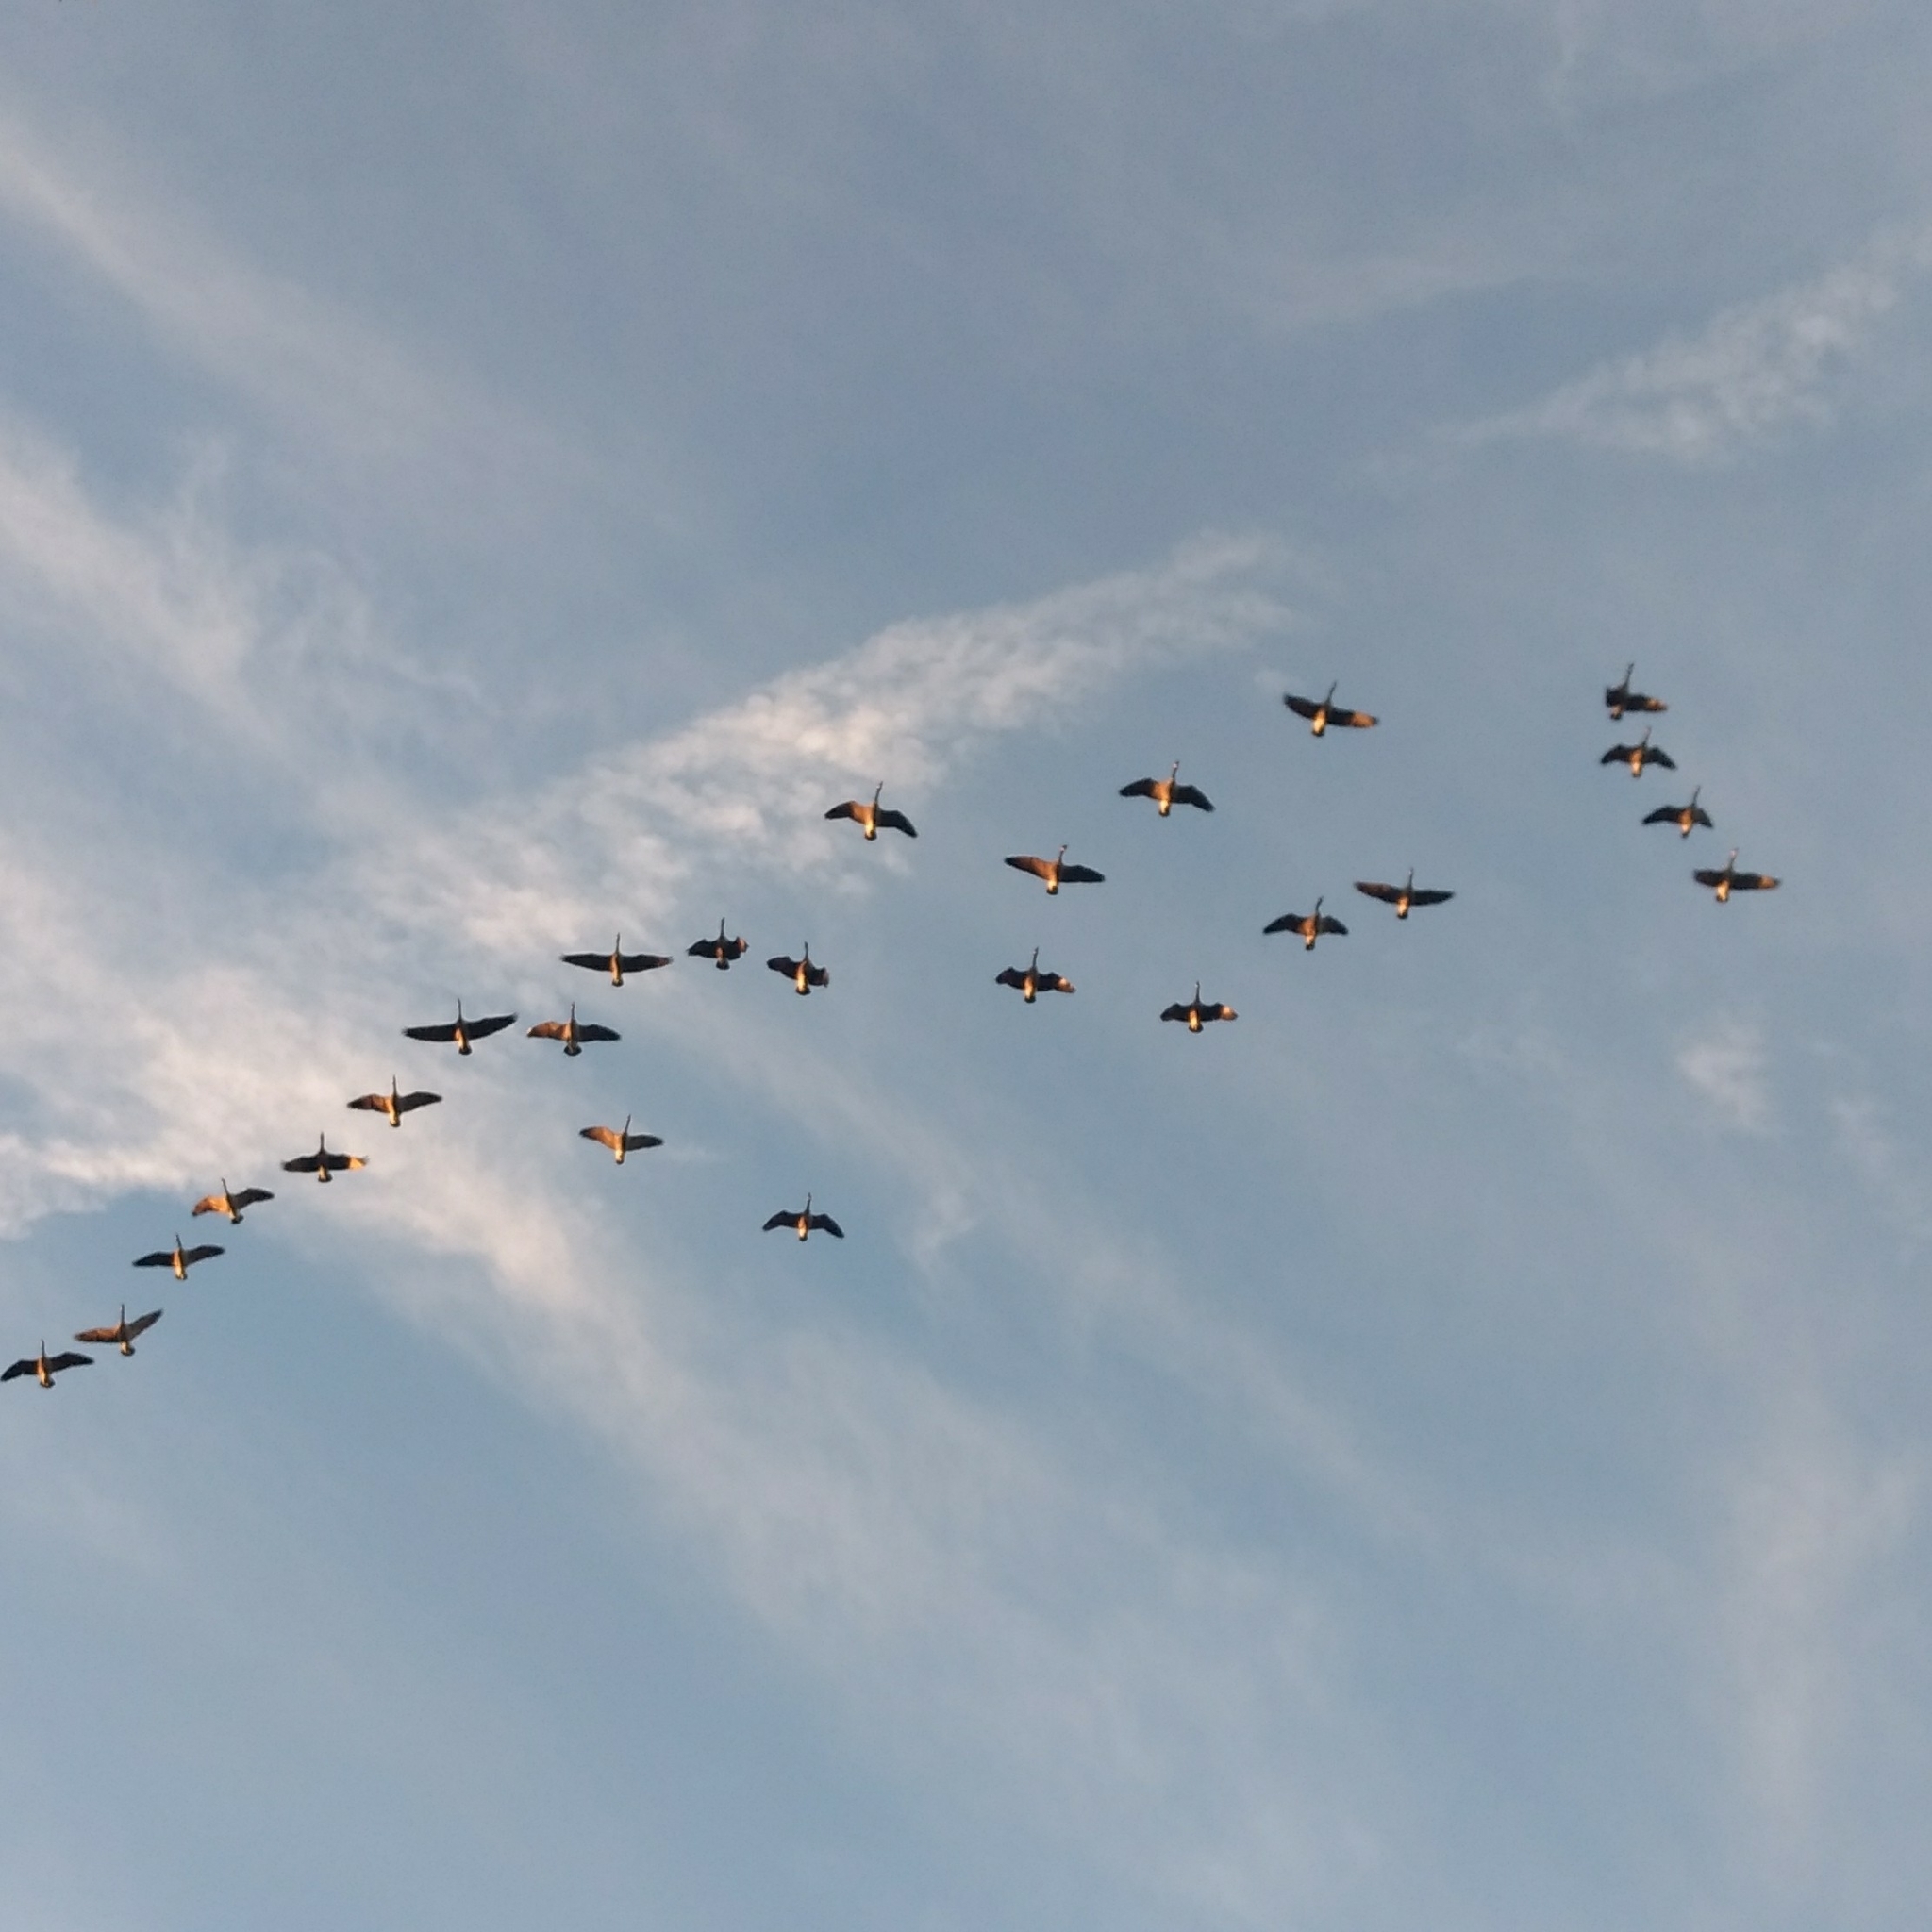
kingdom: Animalia
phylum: Chordata
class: Aves
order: Anseriformes
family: Anatidae
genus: Branta
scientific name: Branta canadensis
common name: Canada goose
